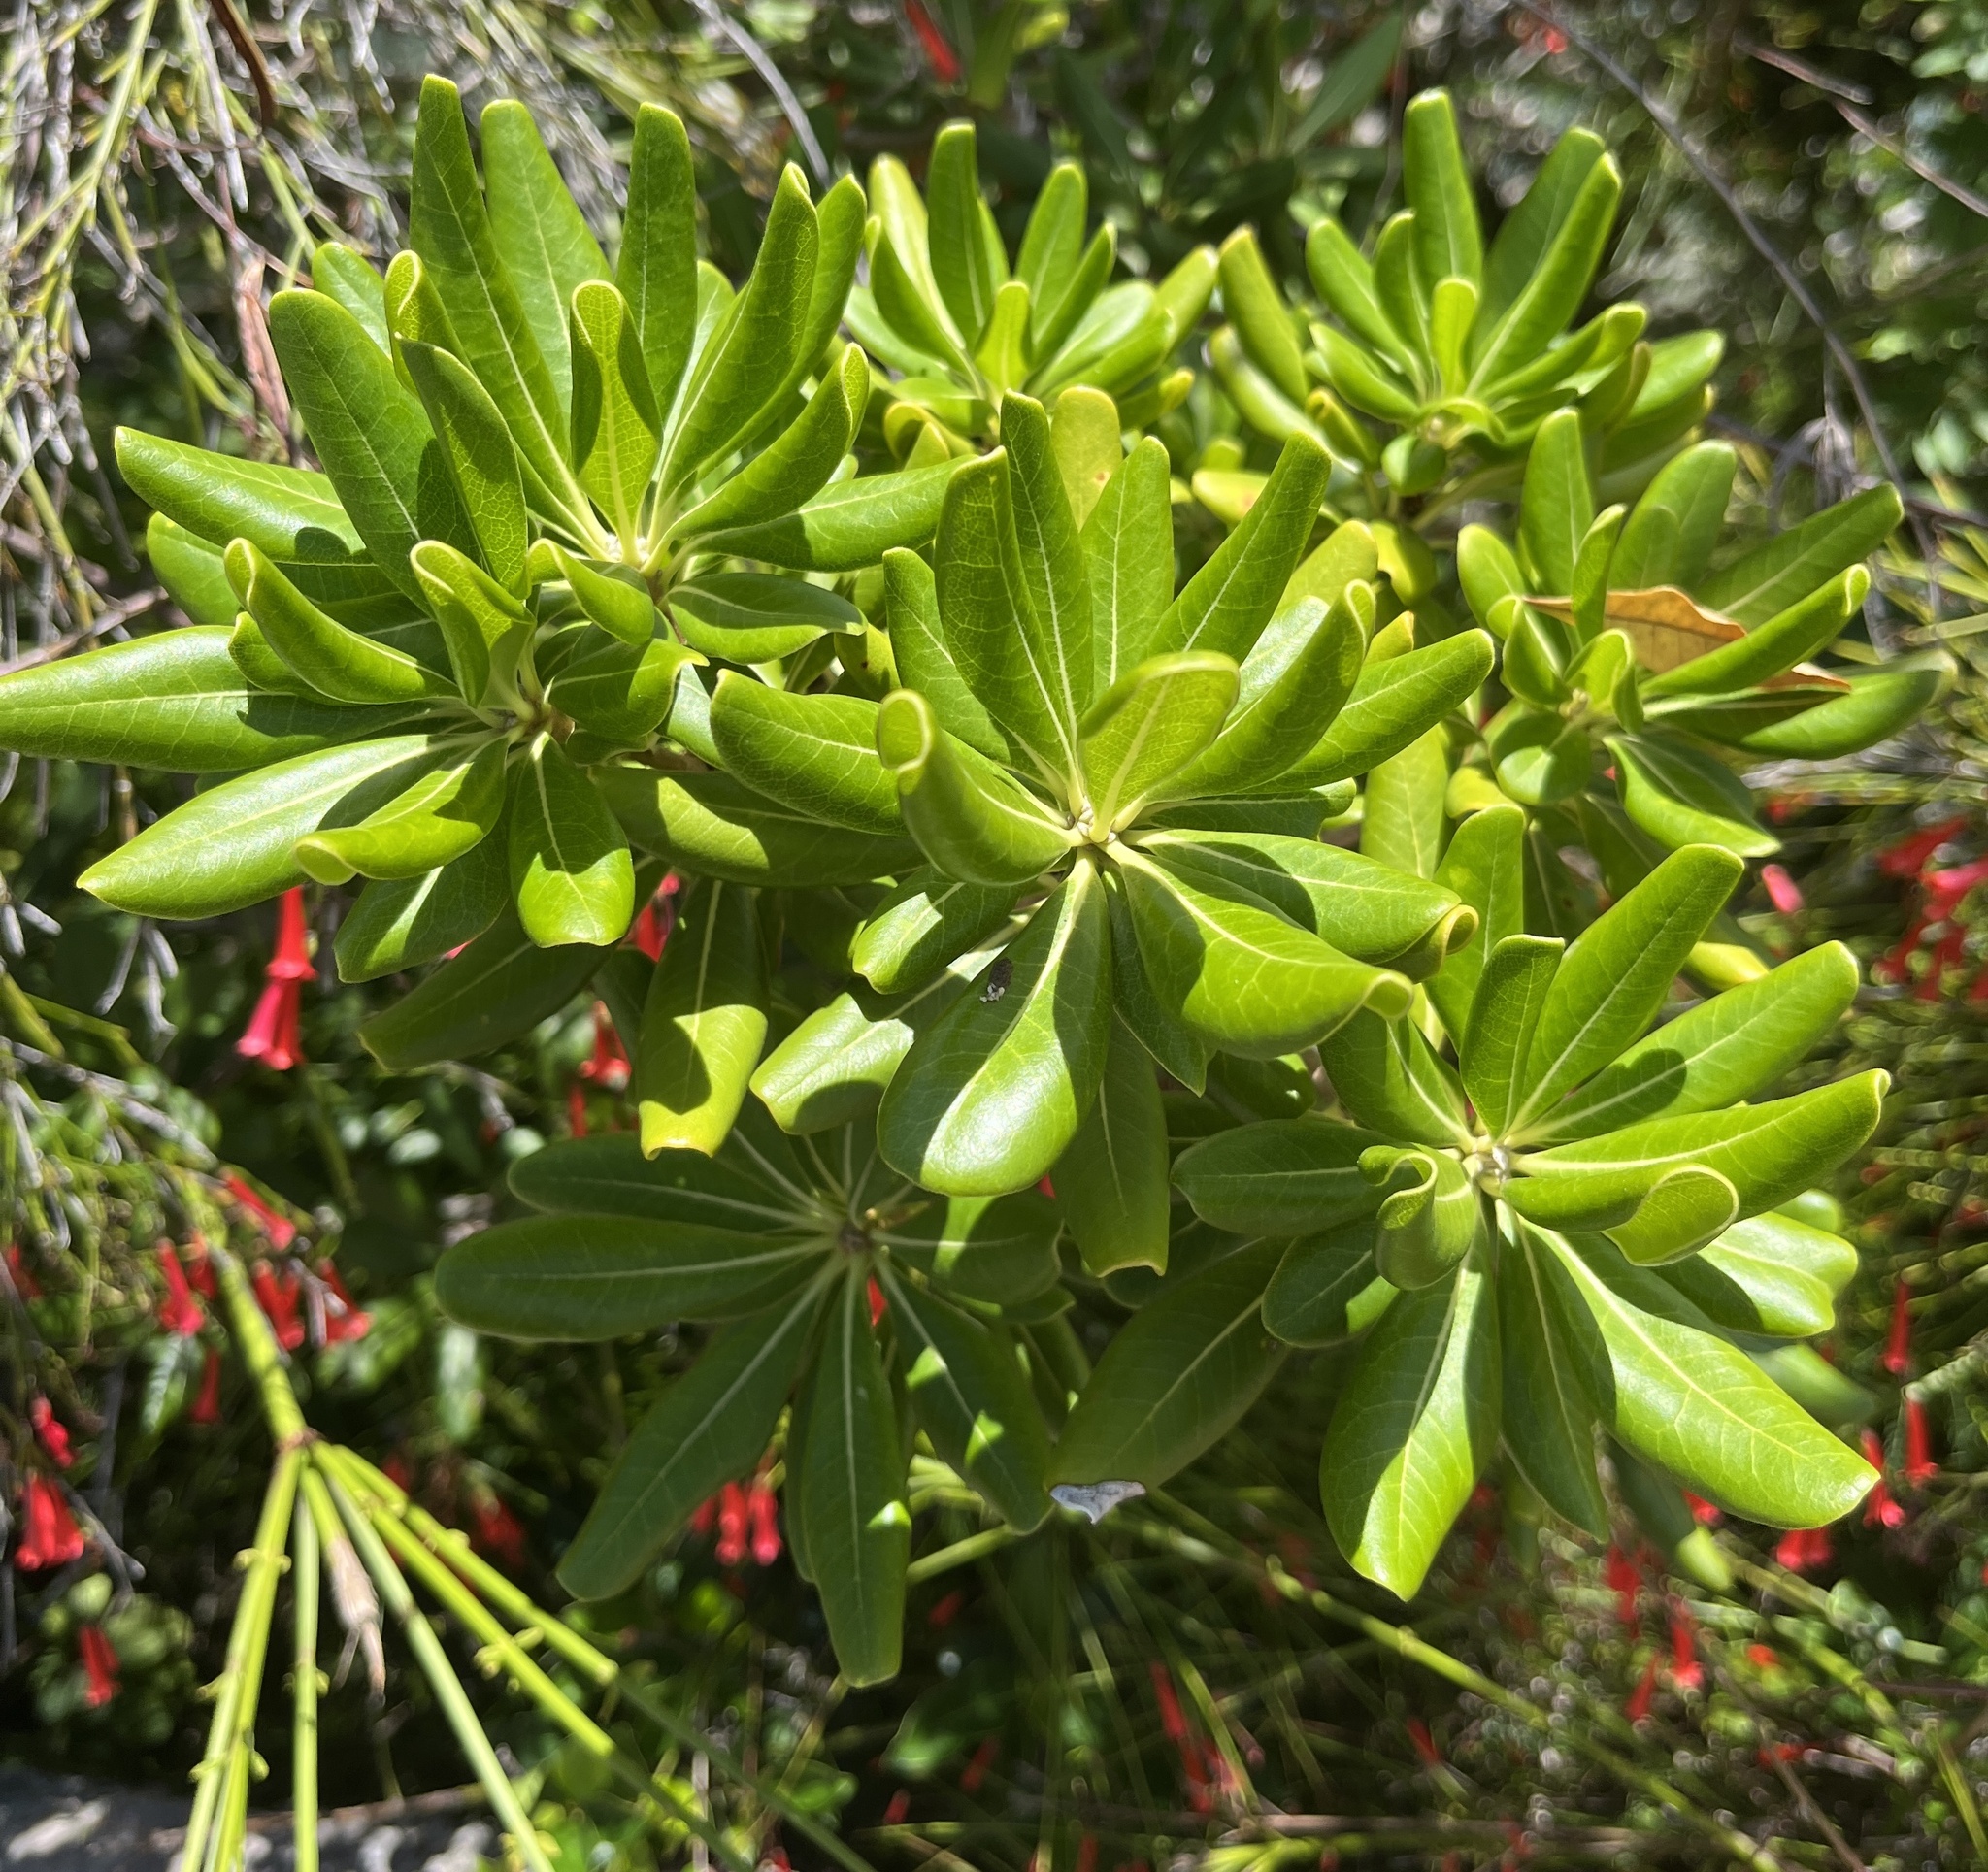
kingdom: Plantae
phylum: Tracheophyta
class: Magnoliopsida
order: Apiales
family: Pittosporaceae
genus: Pittosporum
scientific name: Pittosporum tobira
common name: Japanese cheesewood
